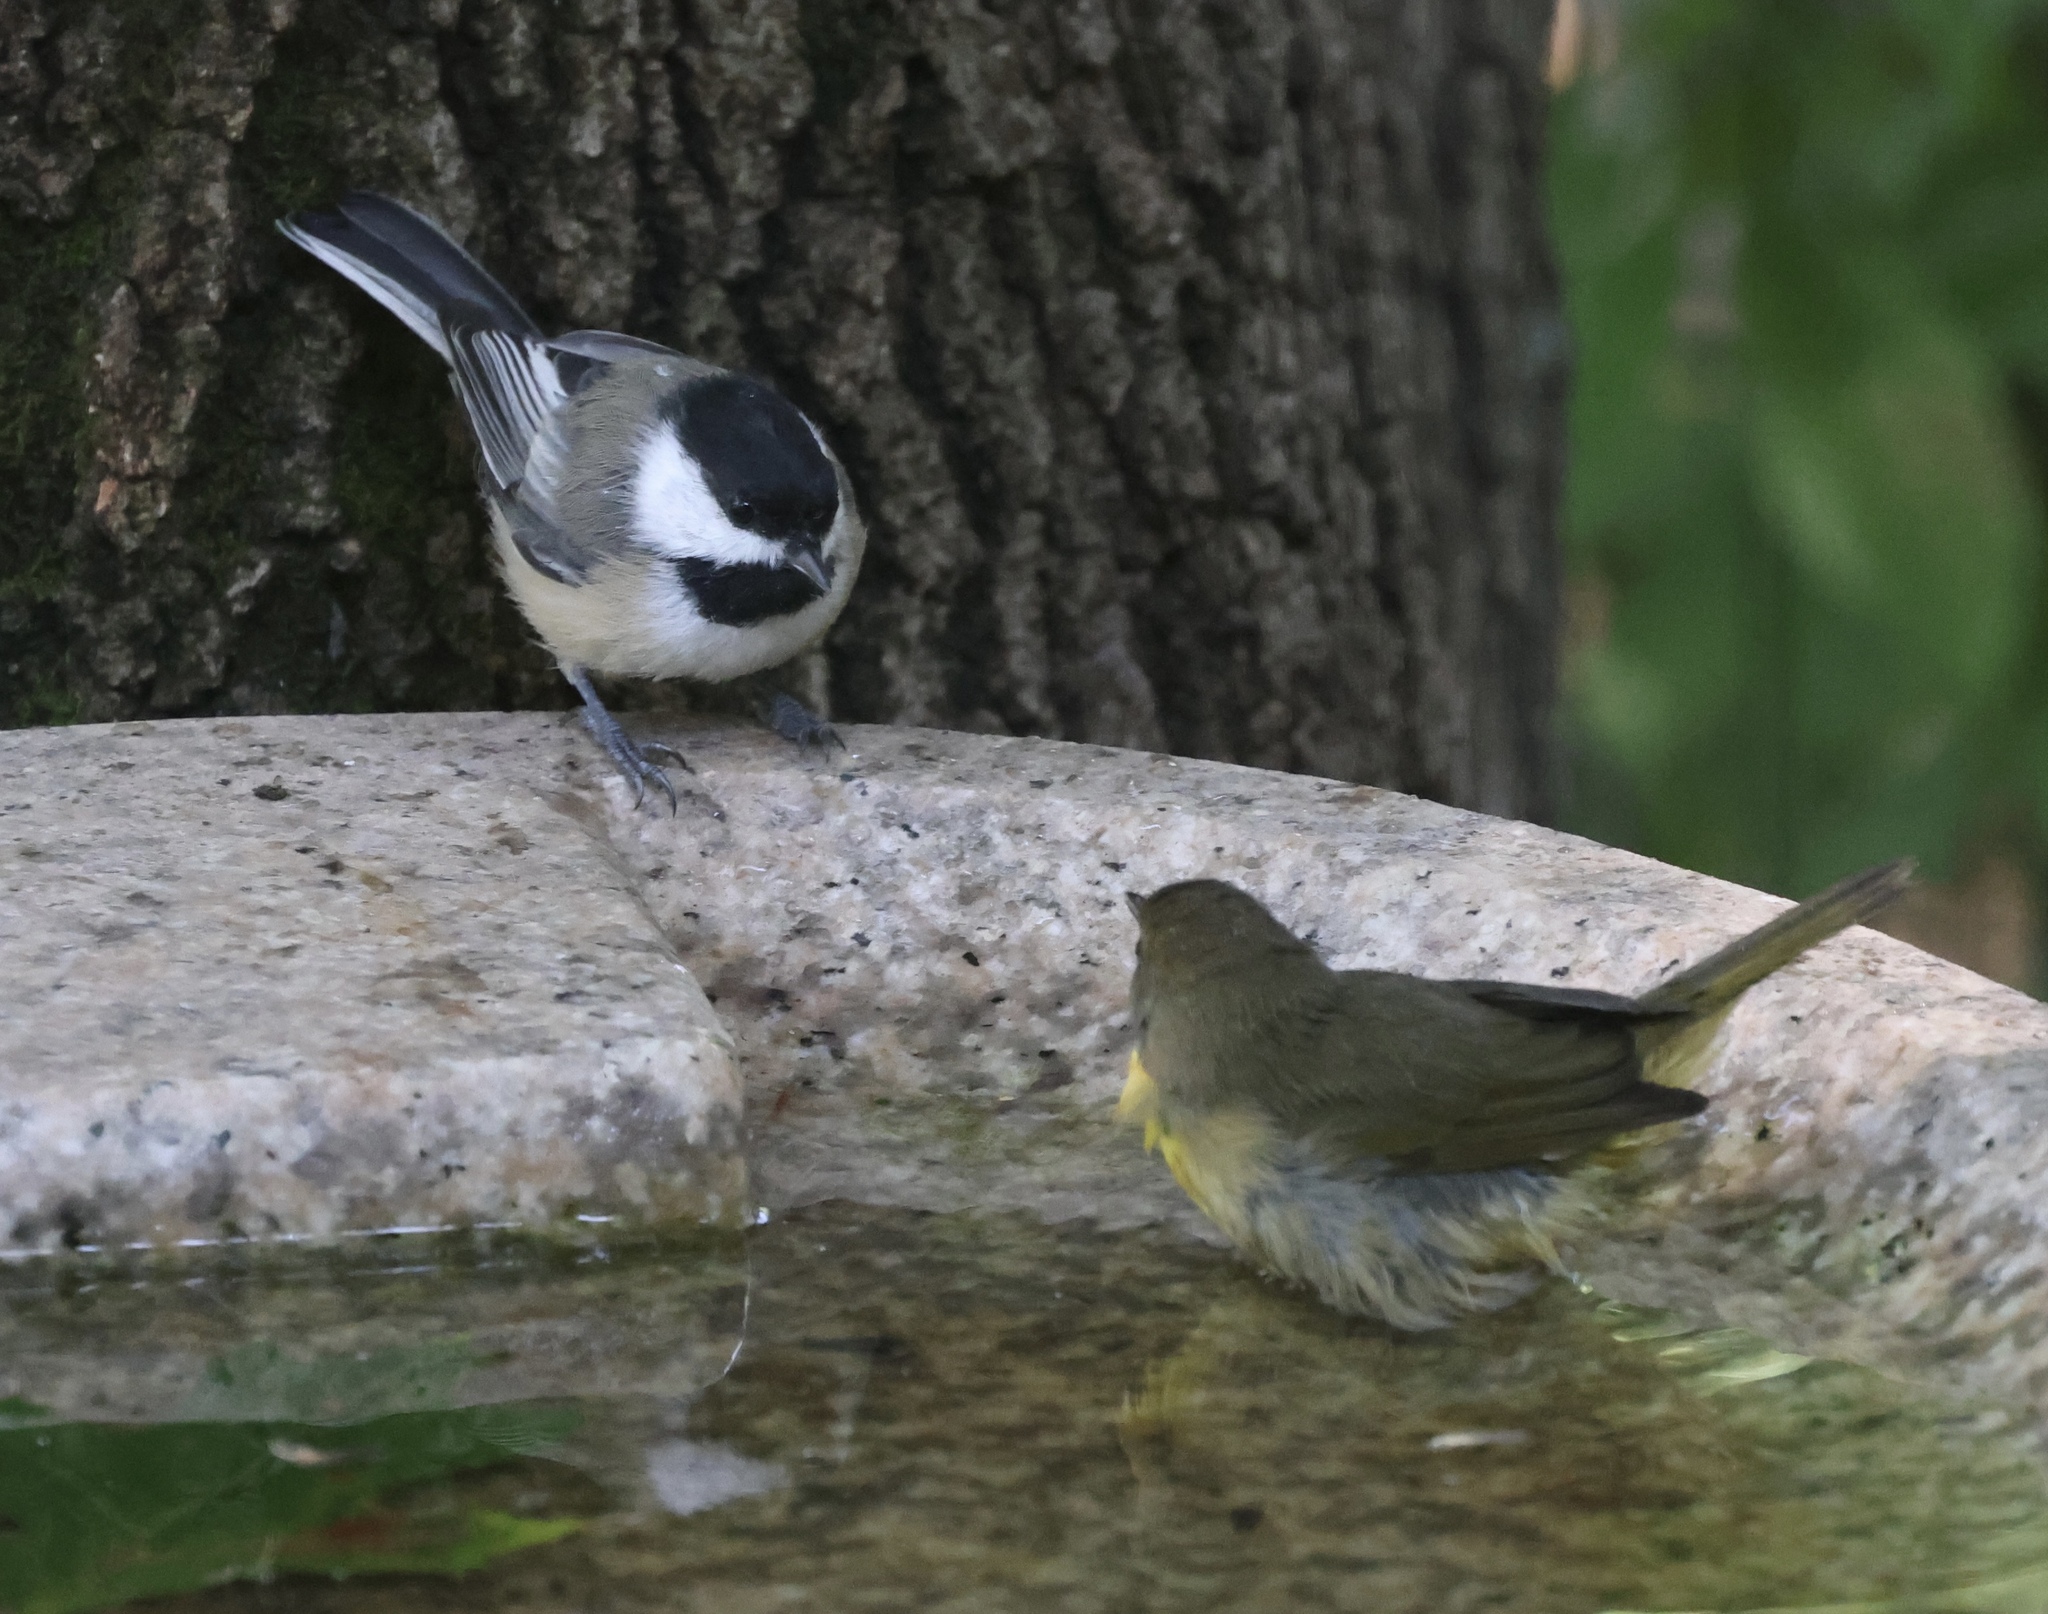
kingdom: Animalia
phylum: Chordata
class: Aves
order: Passeriformes
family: Paridae
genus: Poecile
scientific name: Poecile atricapillus
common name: Black-capped chickadee
